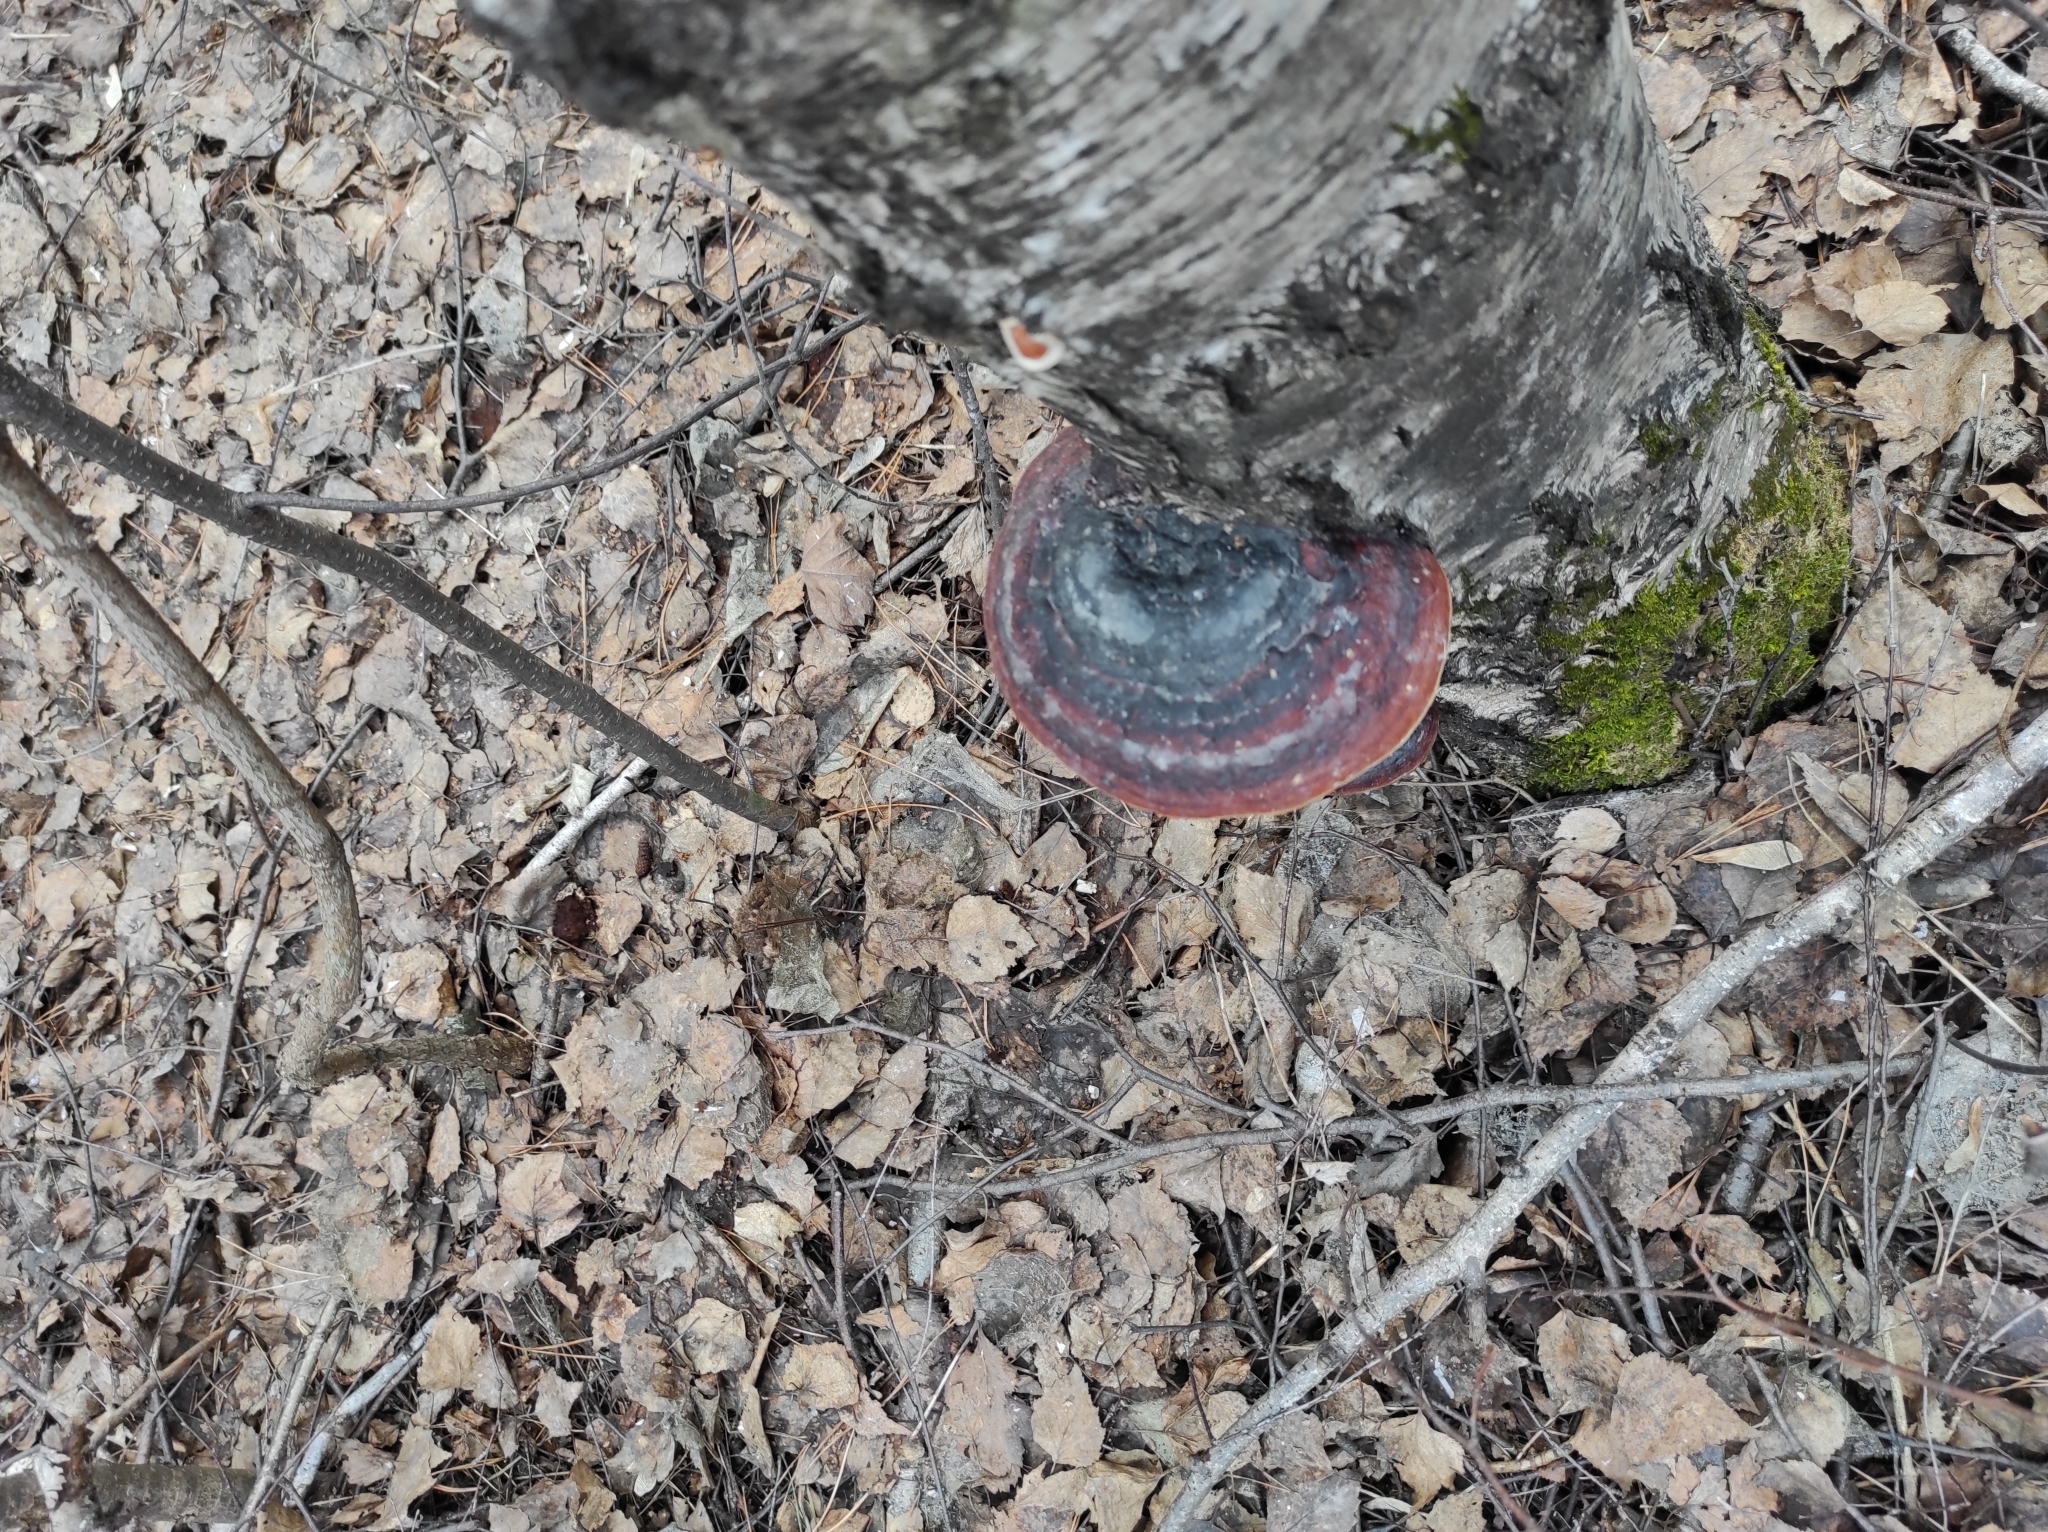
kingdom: Fungi
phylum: Basidiomycota
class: Agaricomycetes
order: Polyporales
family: Fomitopsidaceae
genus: Fomitopsis
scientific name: Fomitopsis pinicola
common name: Red-belted bracket
